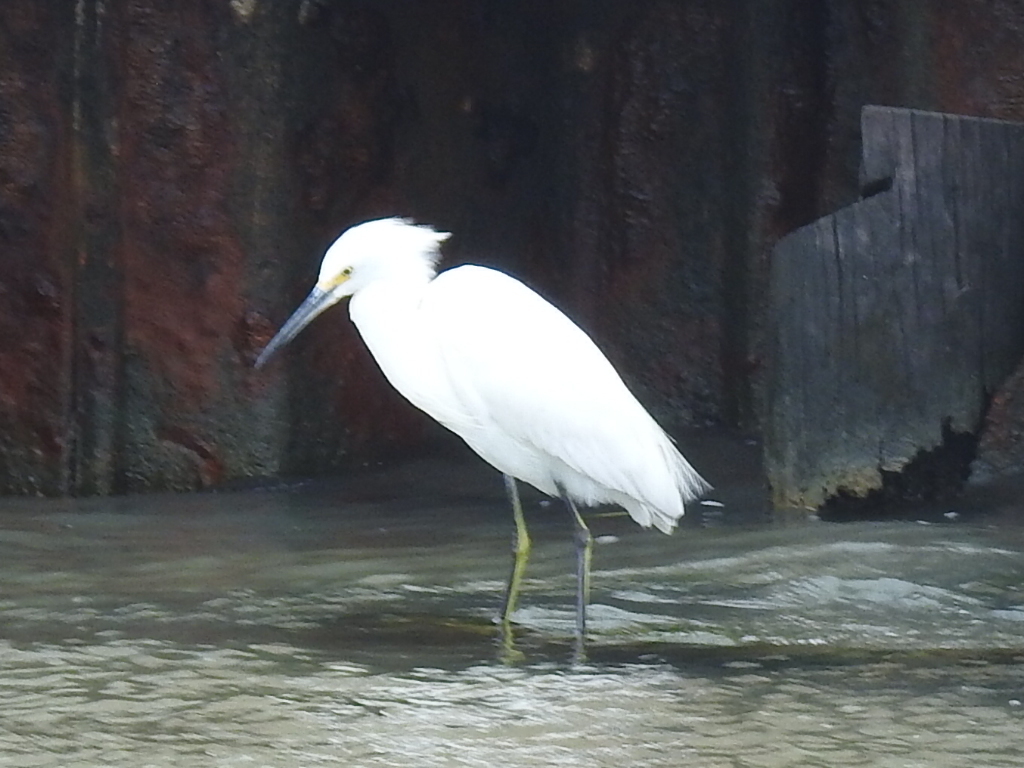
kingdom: Animalia
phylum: Chordata
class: Aves
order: Pelecaniformes
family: Ardeidae
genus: Egretta
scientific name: Egretta thula
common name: Snowy egret
